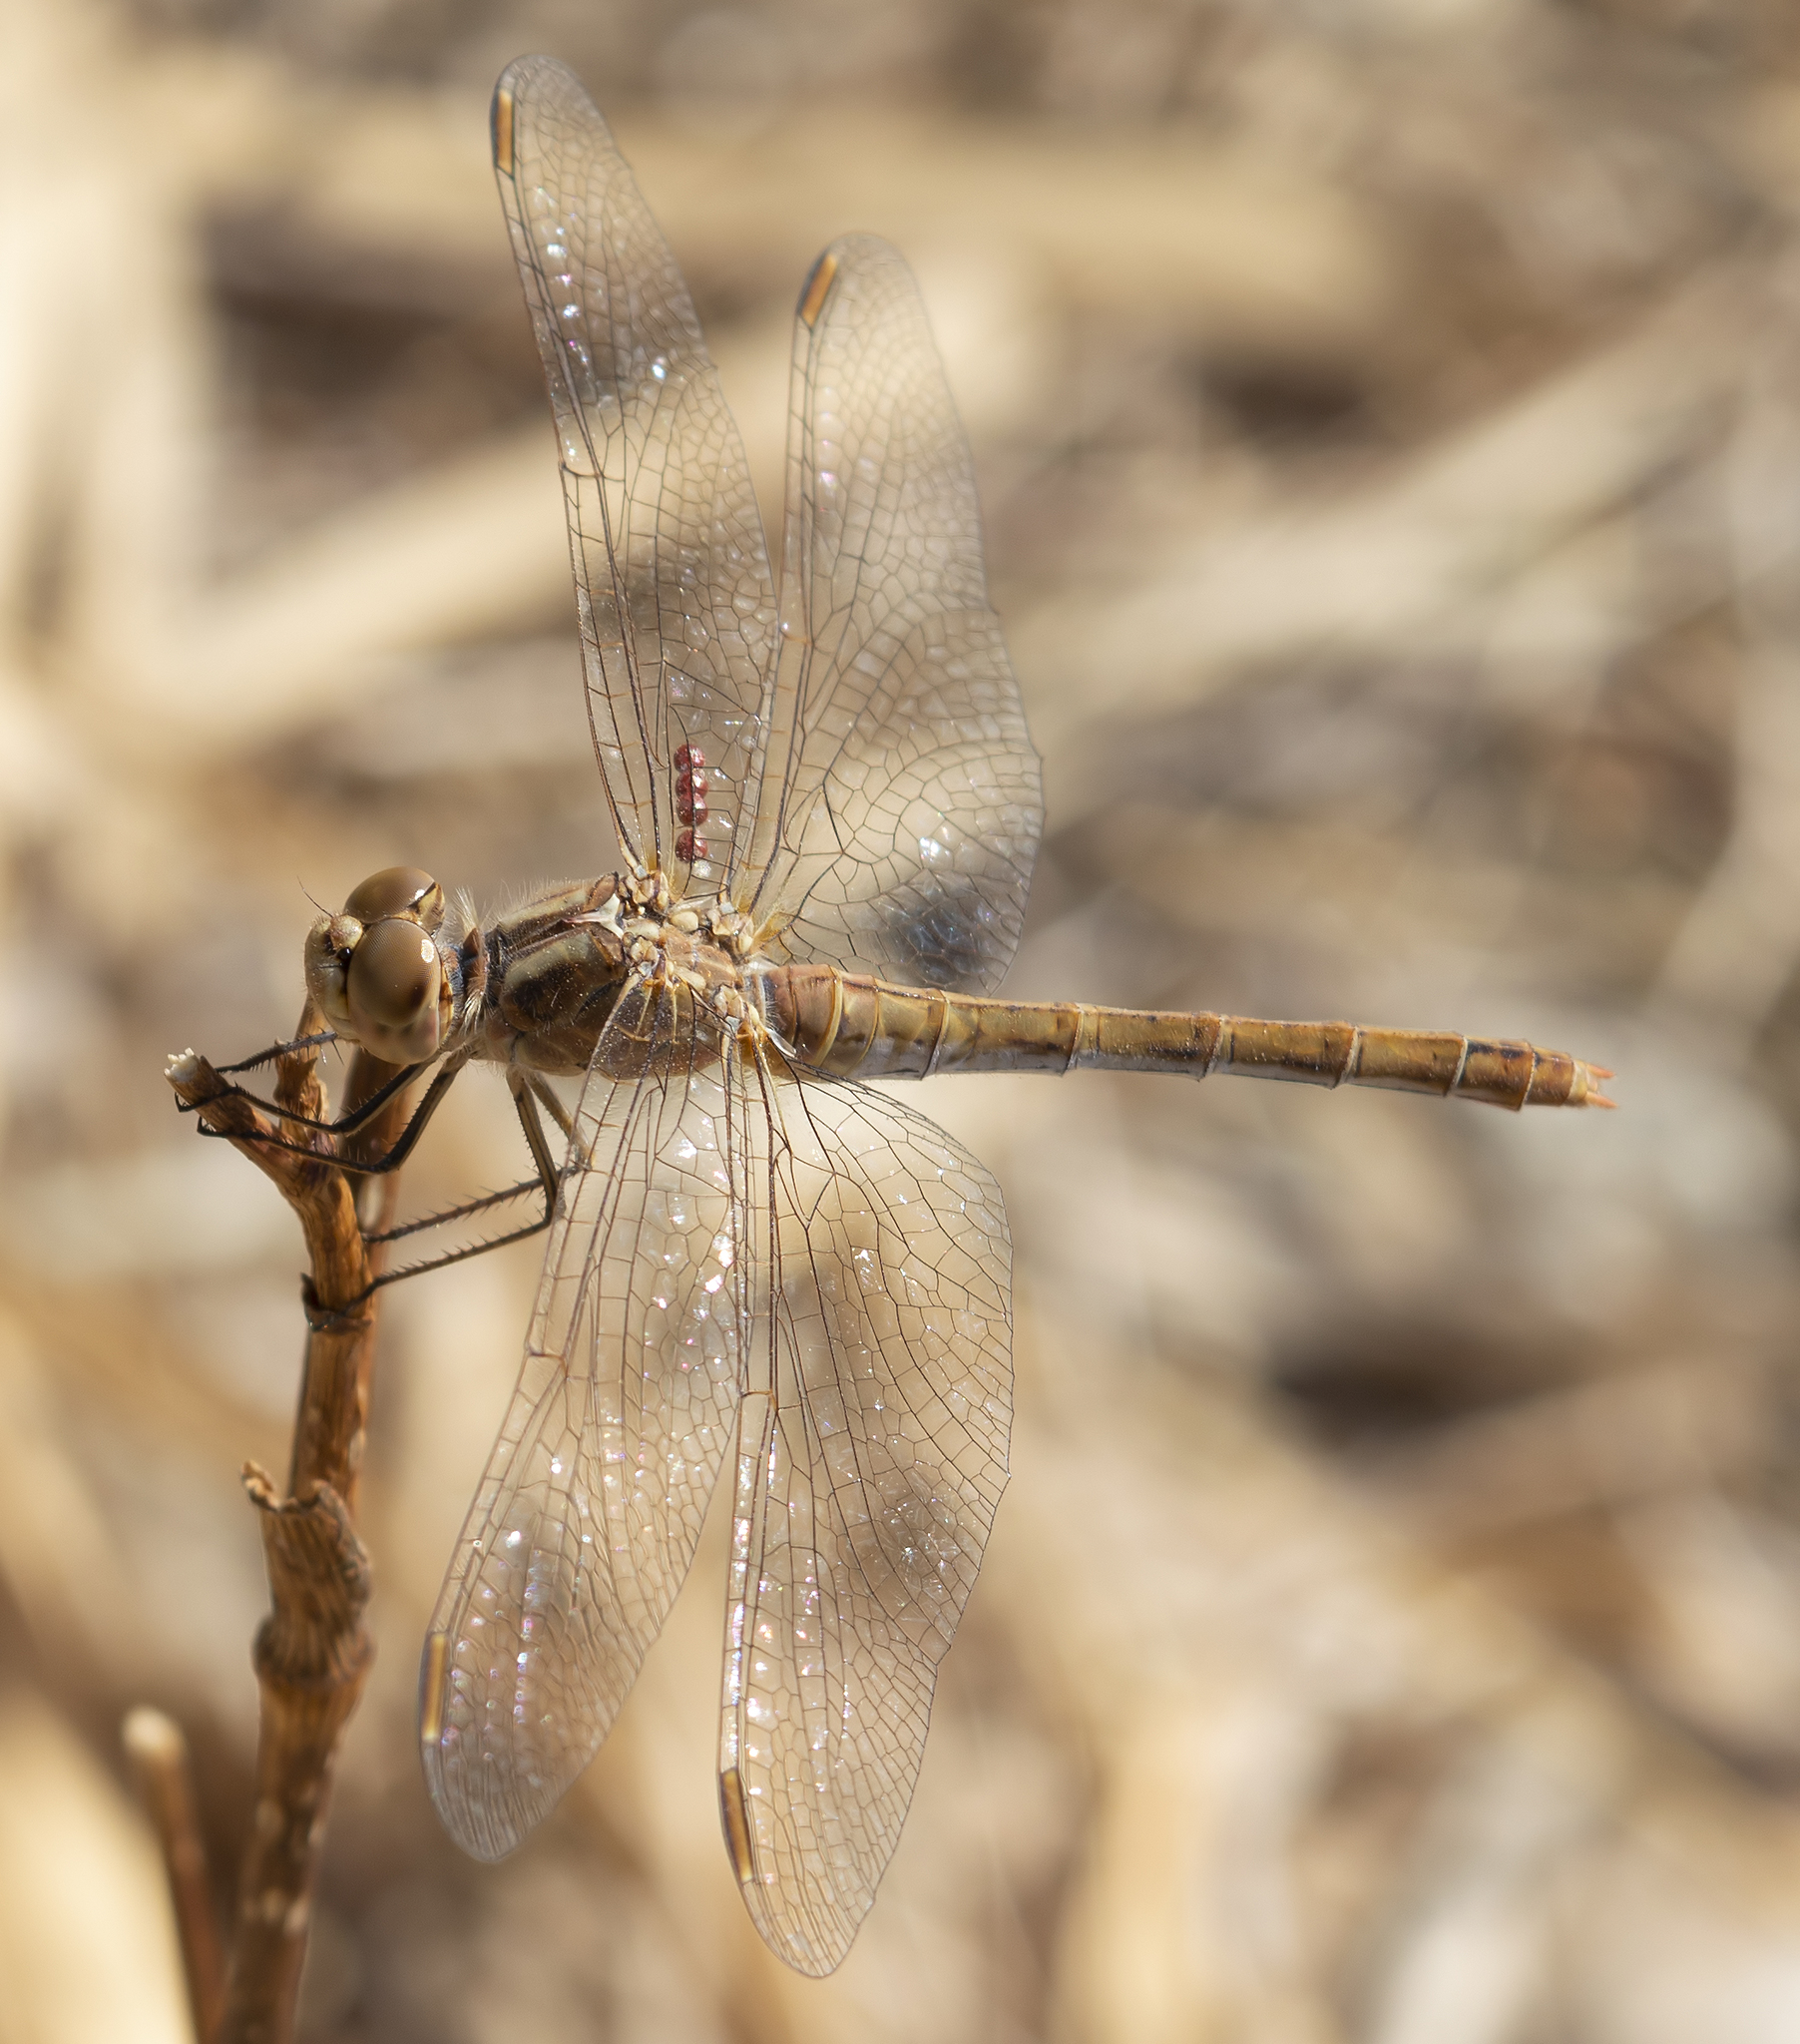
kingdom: Animalia
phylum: Arthropoda
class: Insecta
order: Odonata
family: Libellulidae
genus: Sympetrum
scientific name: Sympetrum meridionale
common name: Southern darter
